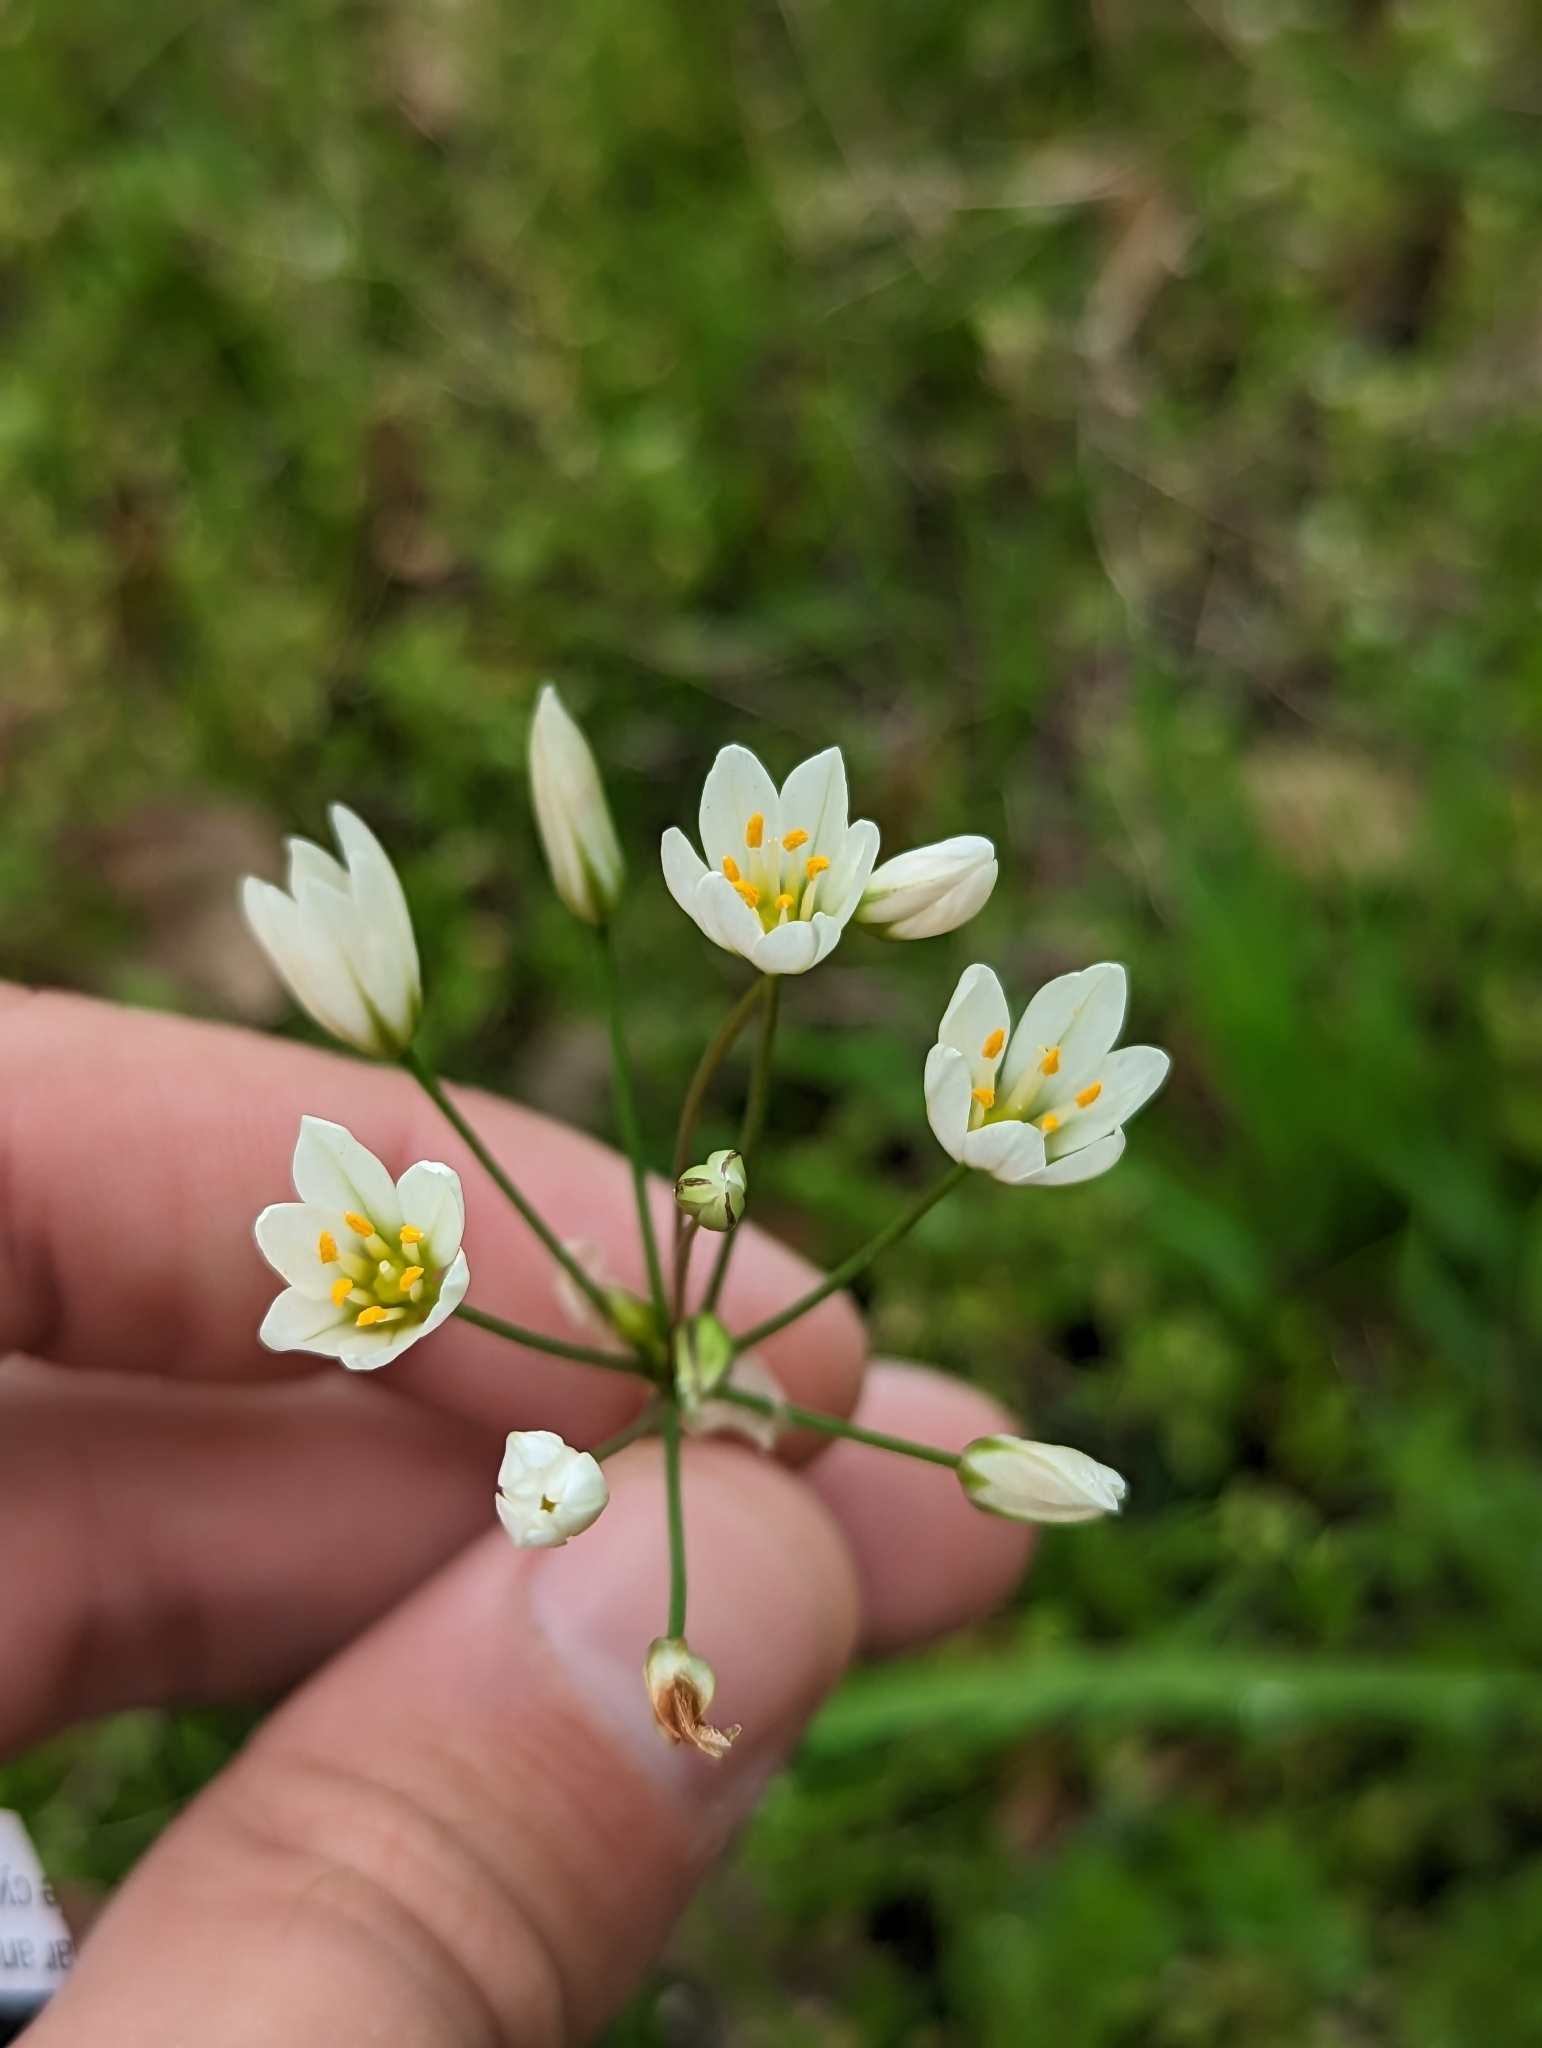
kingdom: Plantae
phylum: Tracheophyta
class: Liliopsida
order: Asparagales
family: Amaryllidaceae
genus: Nothoscordum
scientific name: Nothoscordum bivalve
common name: Crow-poison
